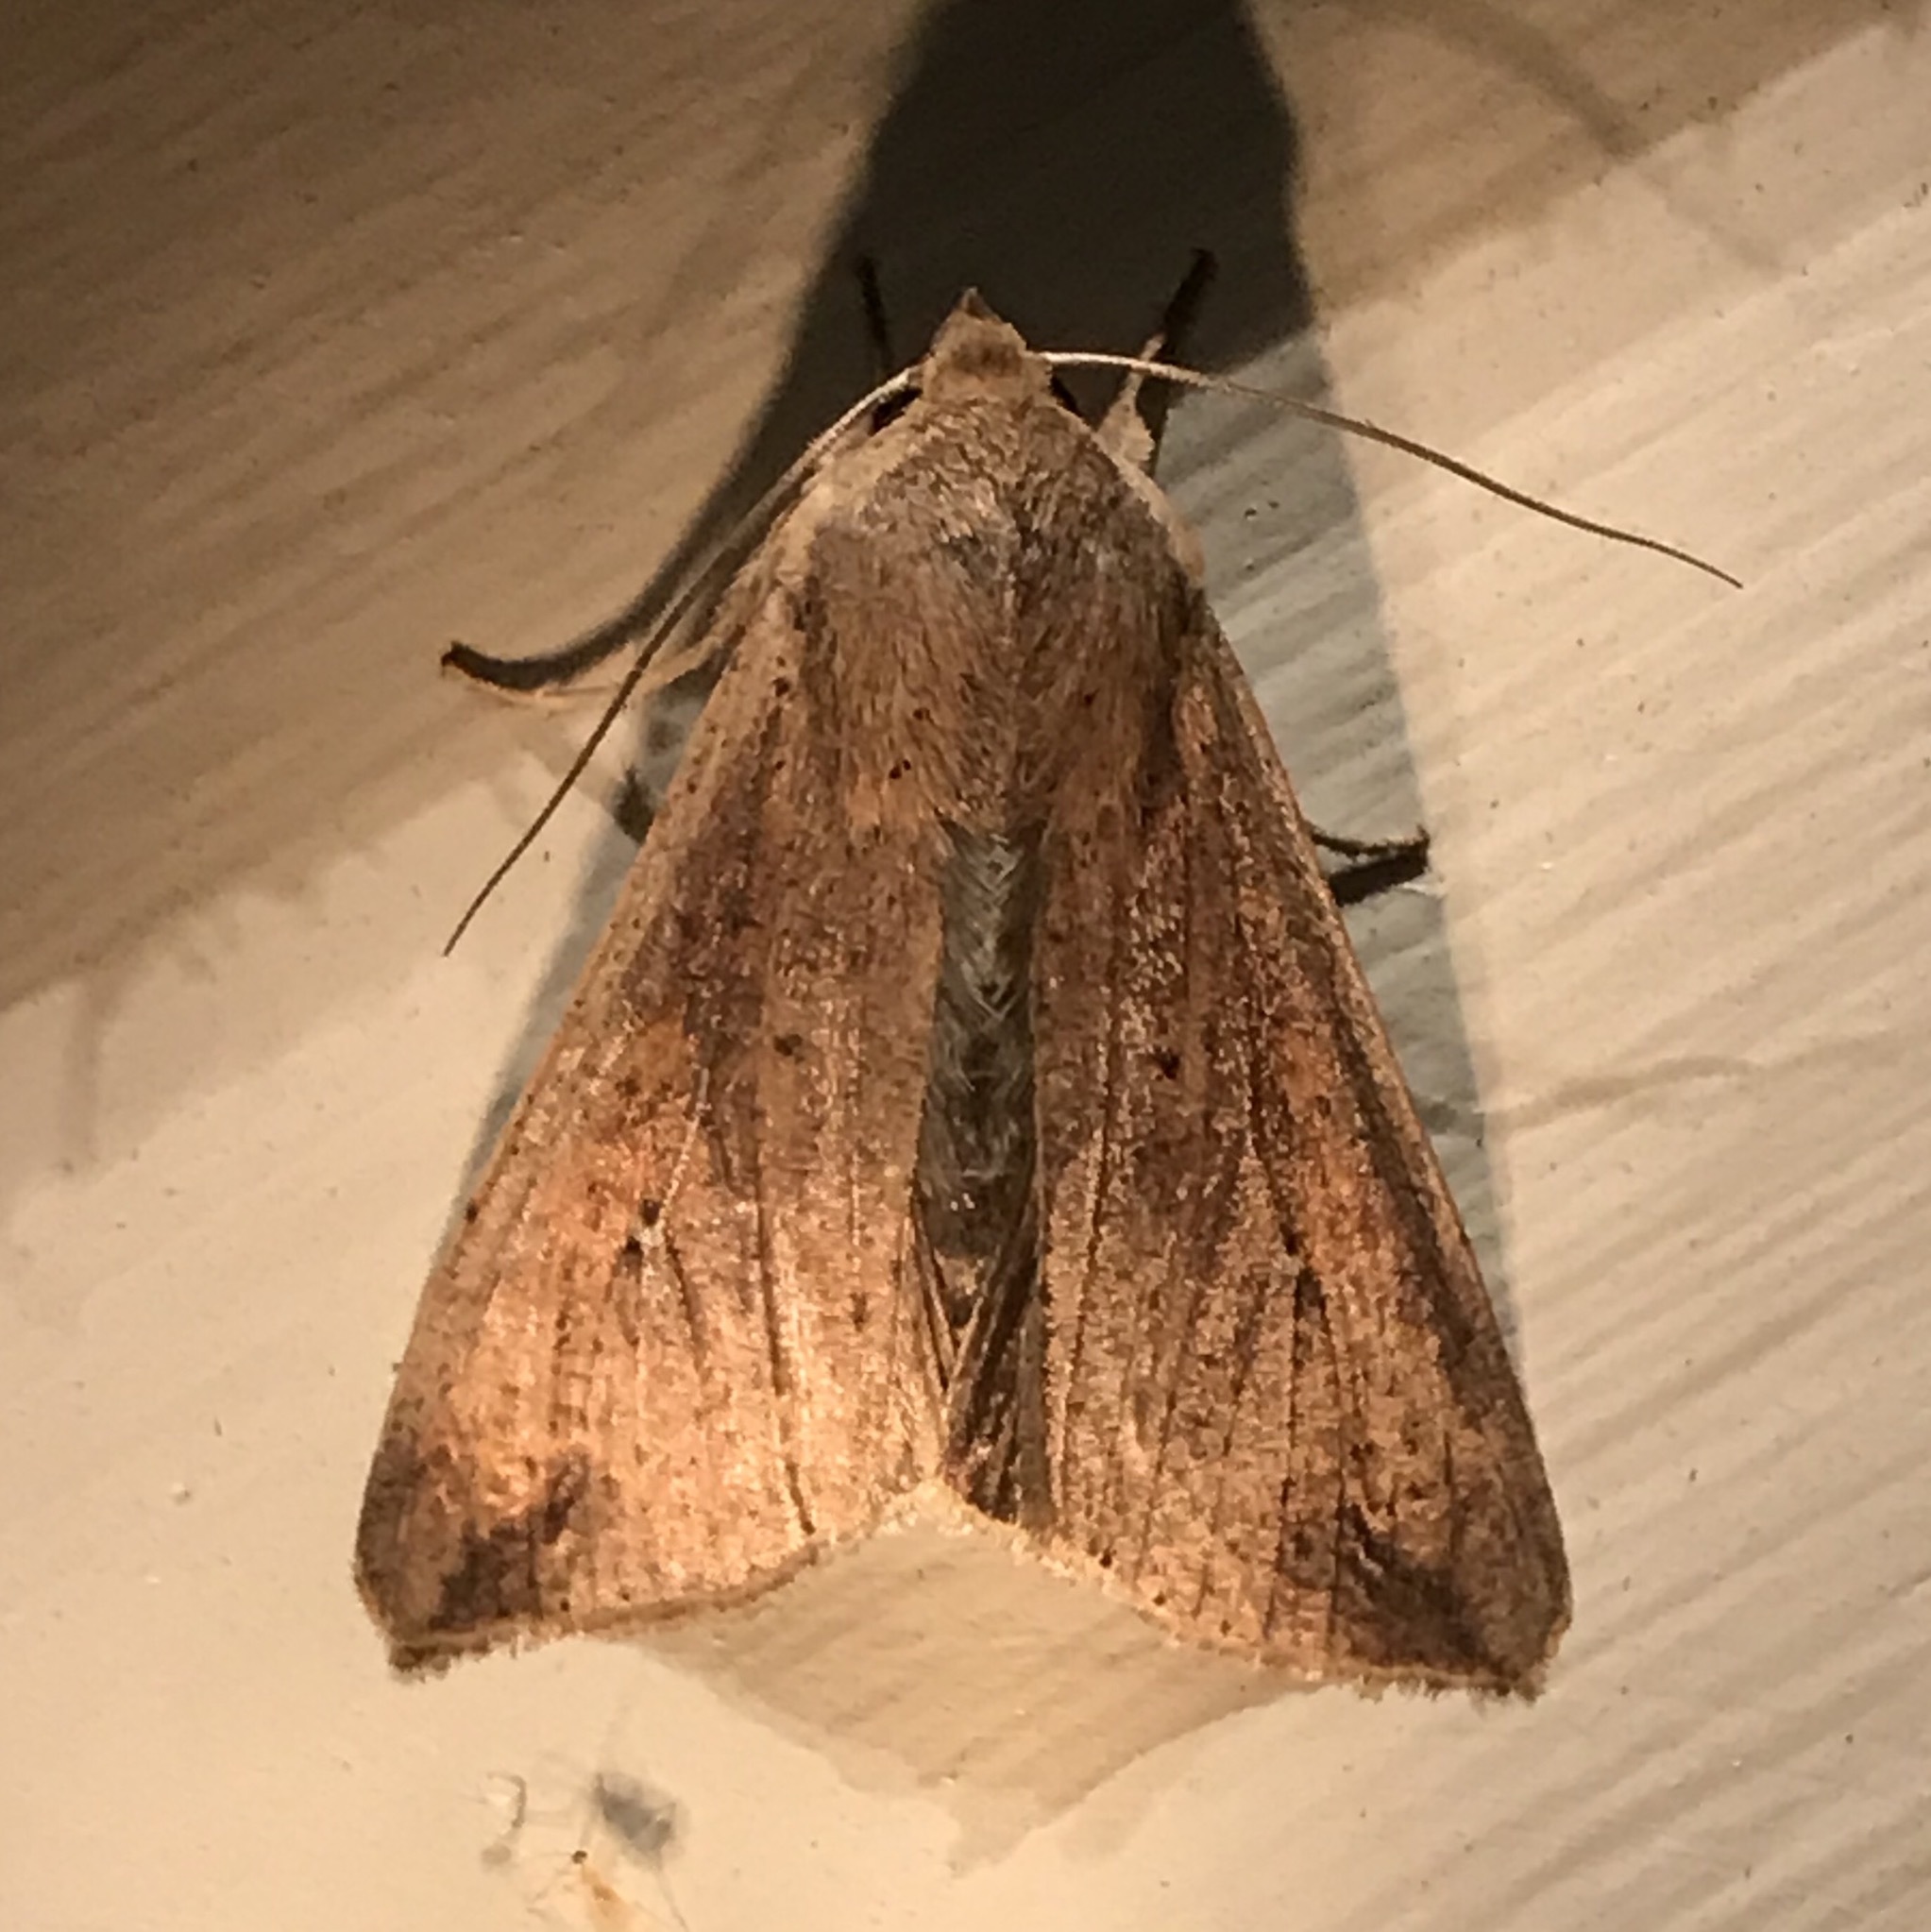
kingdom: Animalia
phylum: Arthropoda
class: Insecta
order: Lepidoptera
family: Noctuidae
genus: Mythimna
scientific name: Mythimna unipuncta
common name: White-speck
